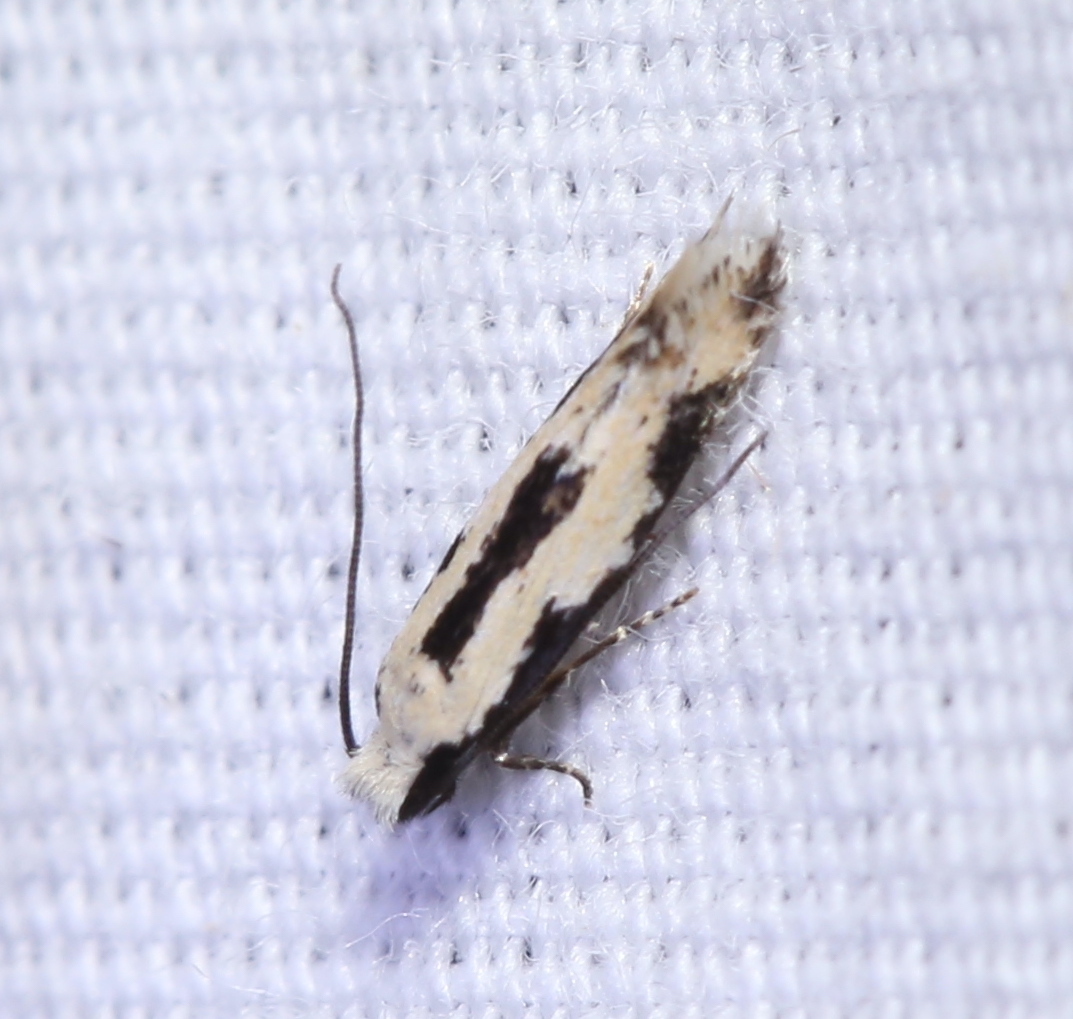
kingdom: Animalia
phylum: Arthropoda
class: Insecta
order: Lepidoptera
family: Meessiidae
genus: Mea
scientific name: Mea bipunctella
